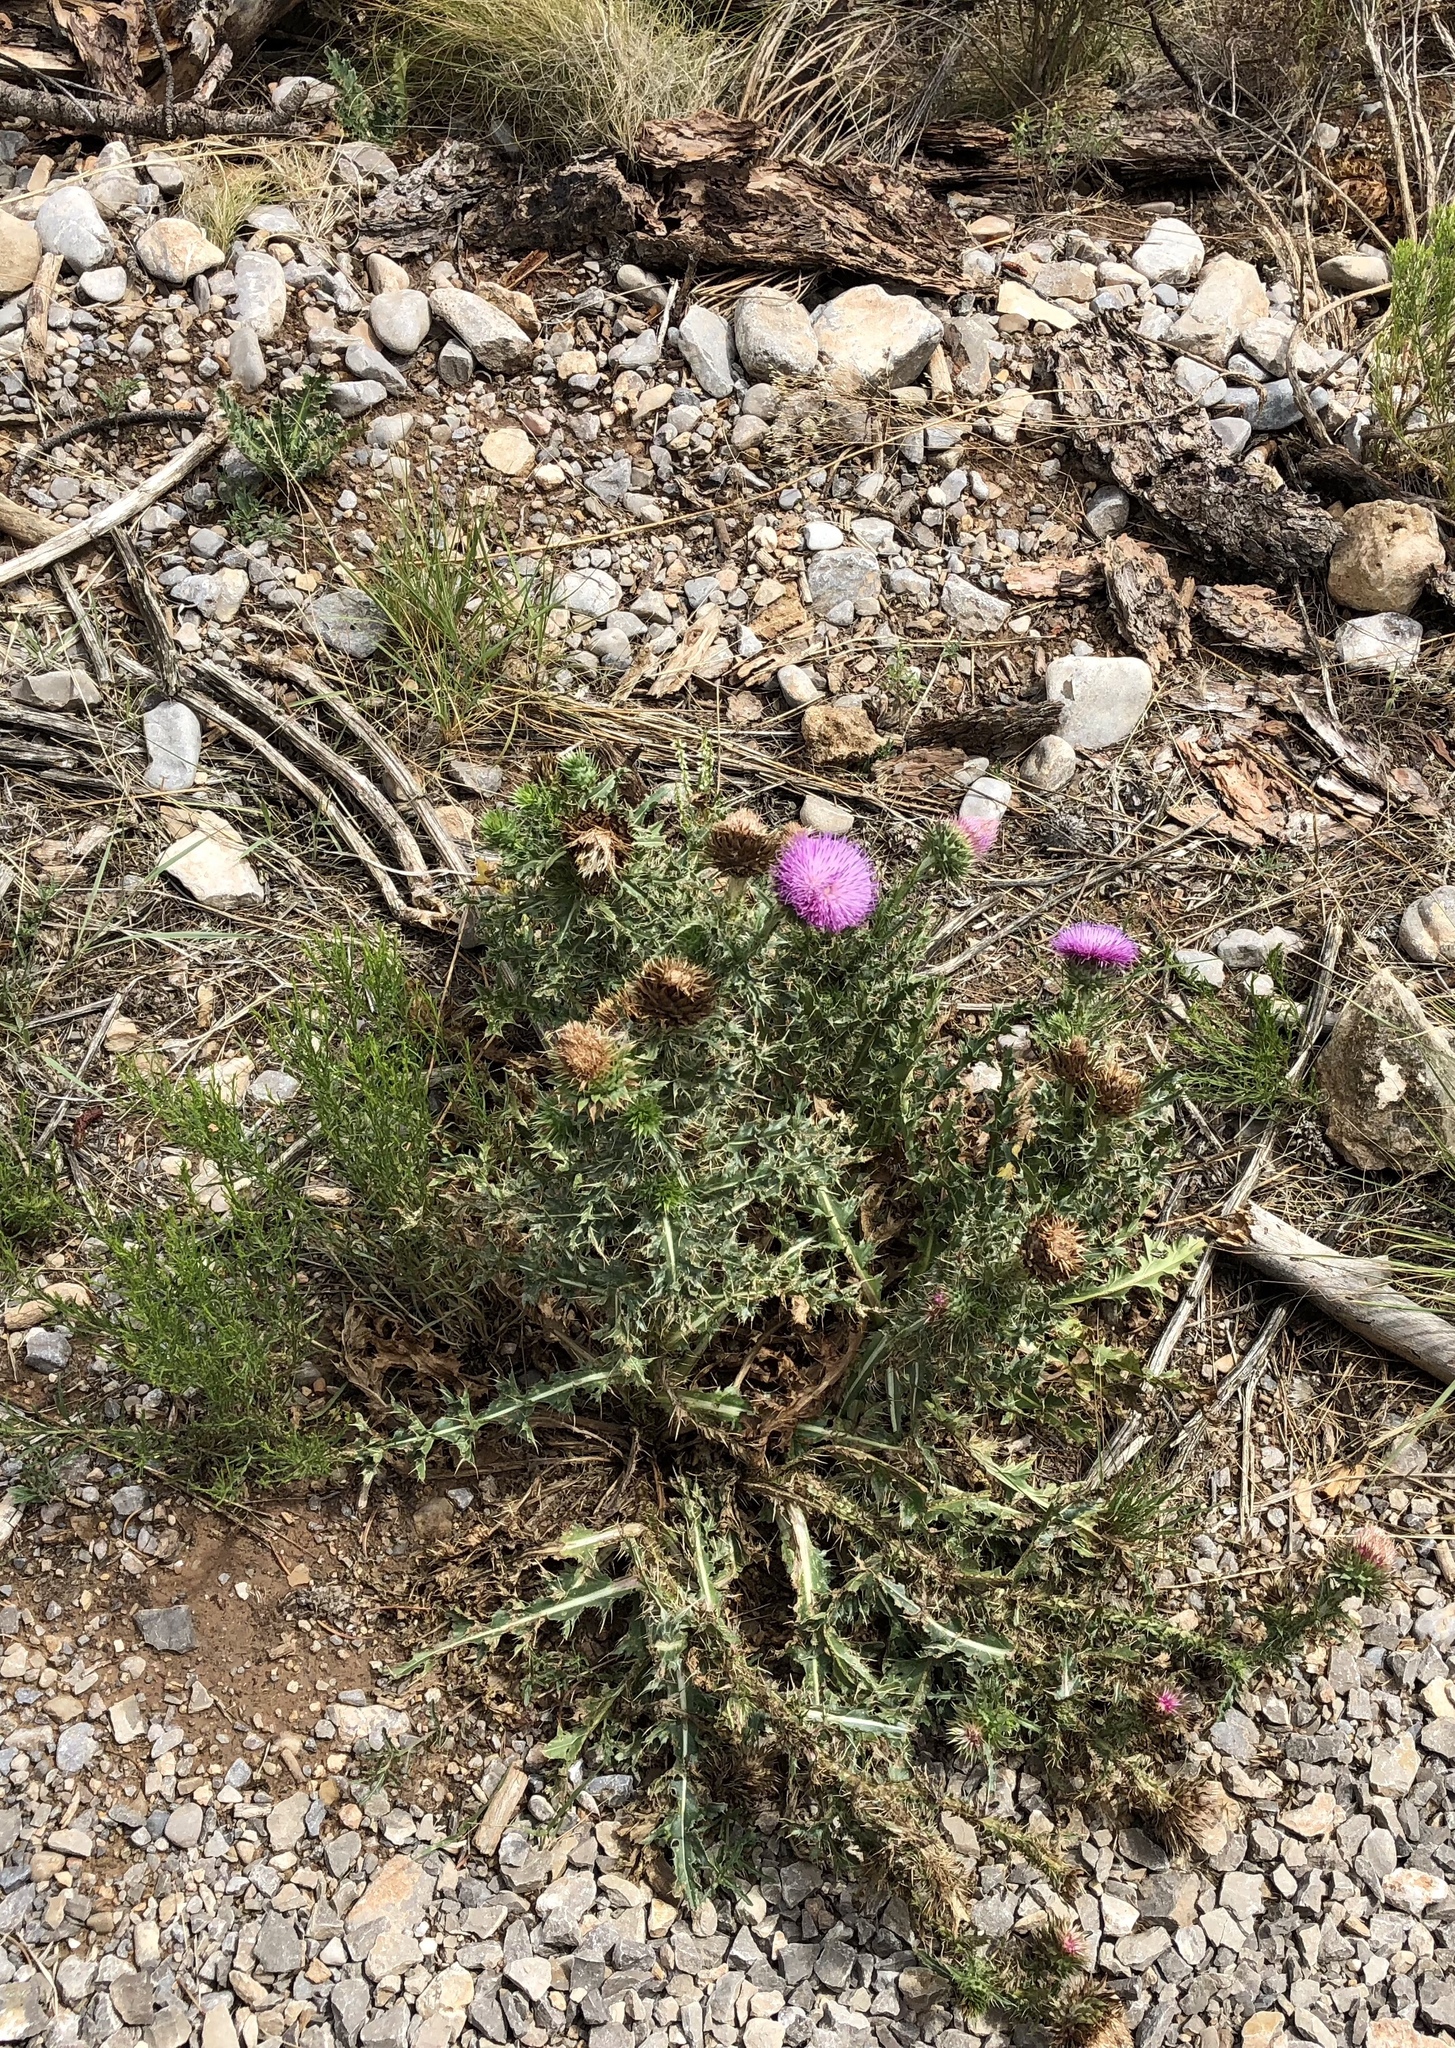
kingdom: Plantae
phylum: Tracheophyta
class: Magnoliopsida
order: Asterales
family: Asteraceae
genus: Carduus
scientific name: Carduus nutans
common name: Musk thistle
